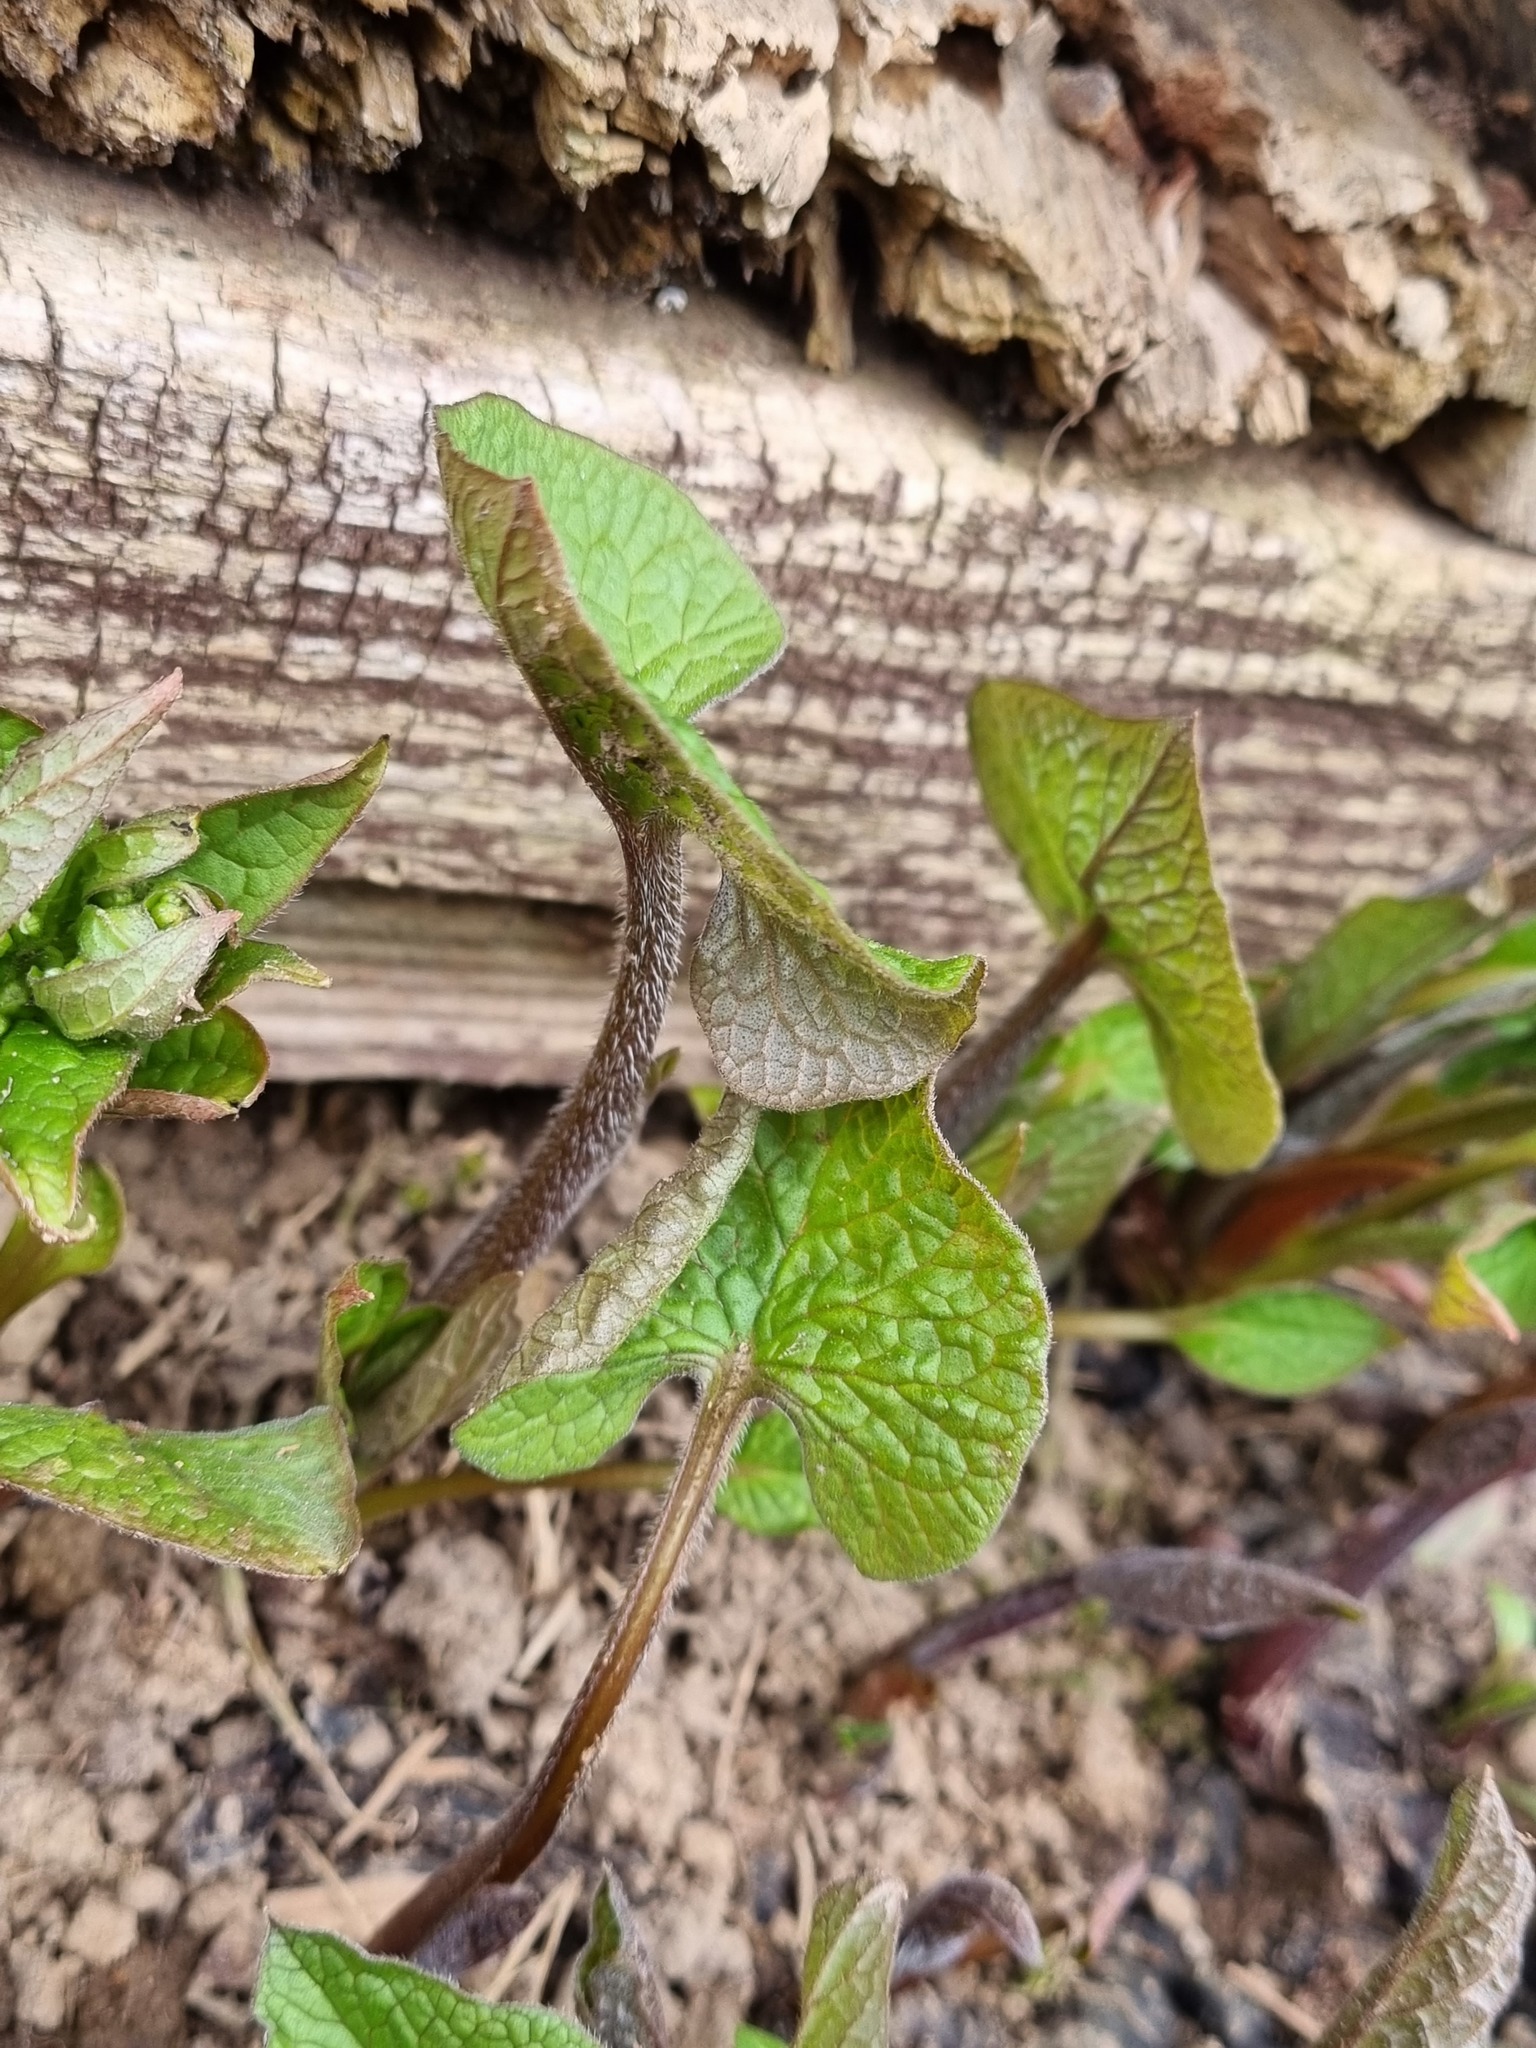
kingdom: Plantae
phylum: Tracheophyta
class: Magnoliopsida
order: Boraginales
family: Boraginaceae
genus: Brunnera
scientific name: Brunnera sibirica
